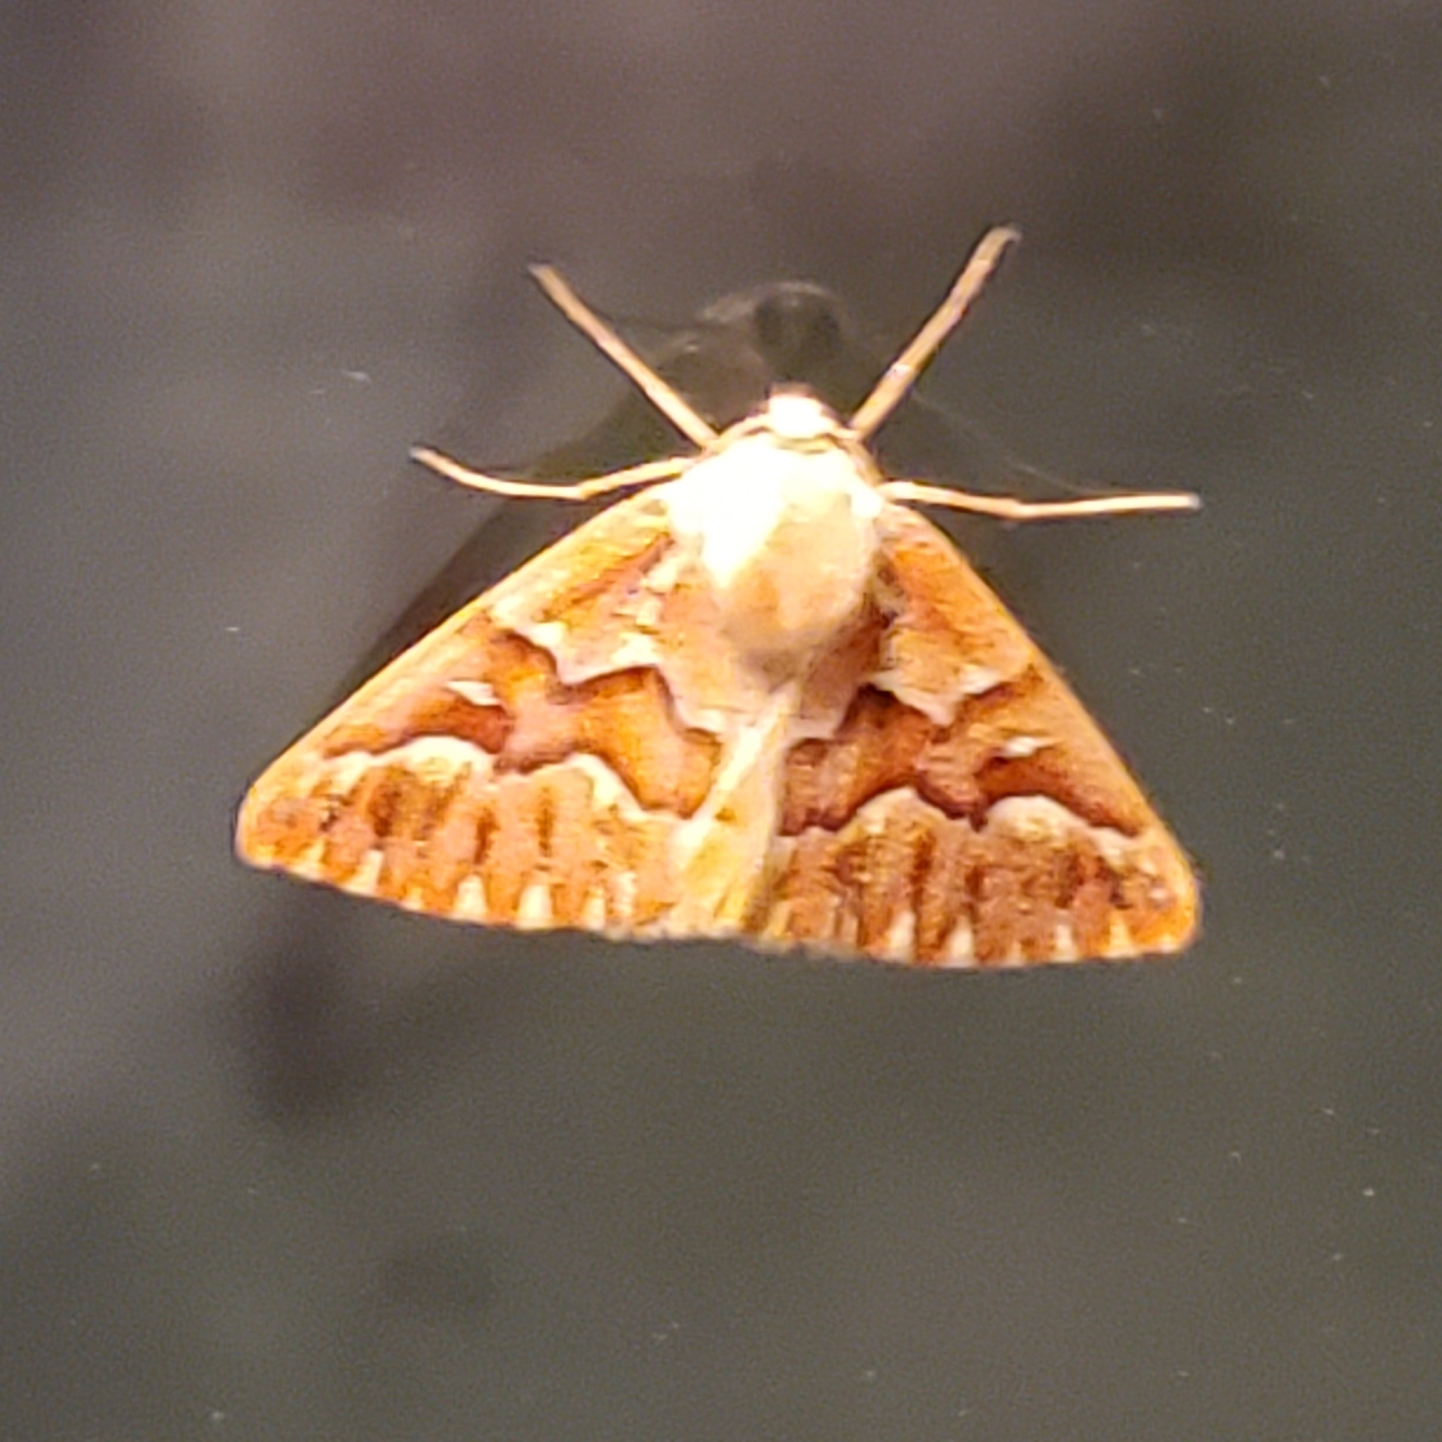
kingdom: Animalia
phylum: Arthropoda
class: Insecta
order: Lepidoptera
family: Geometridae
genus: Caripeta
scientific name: Caripeta aequaliaria
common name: Red girdle moth
